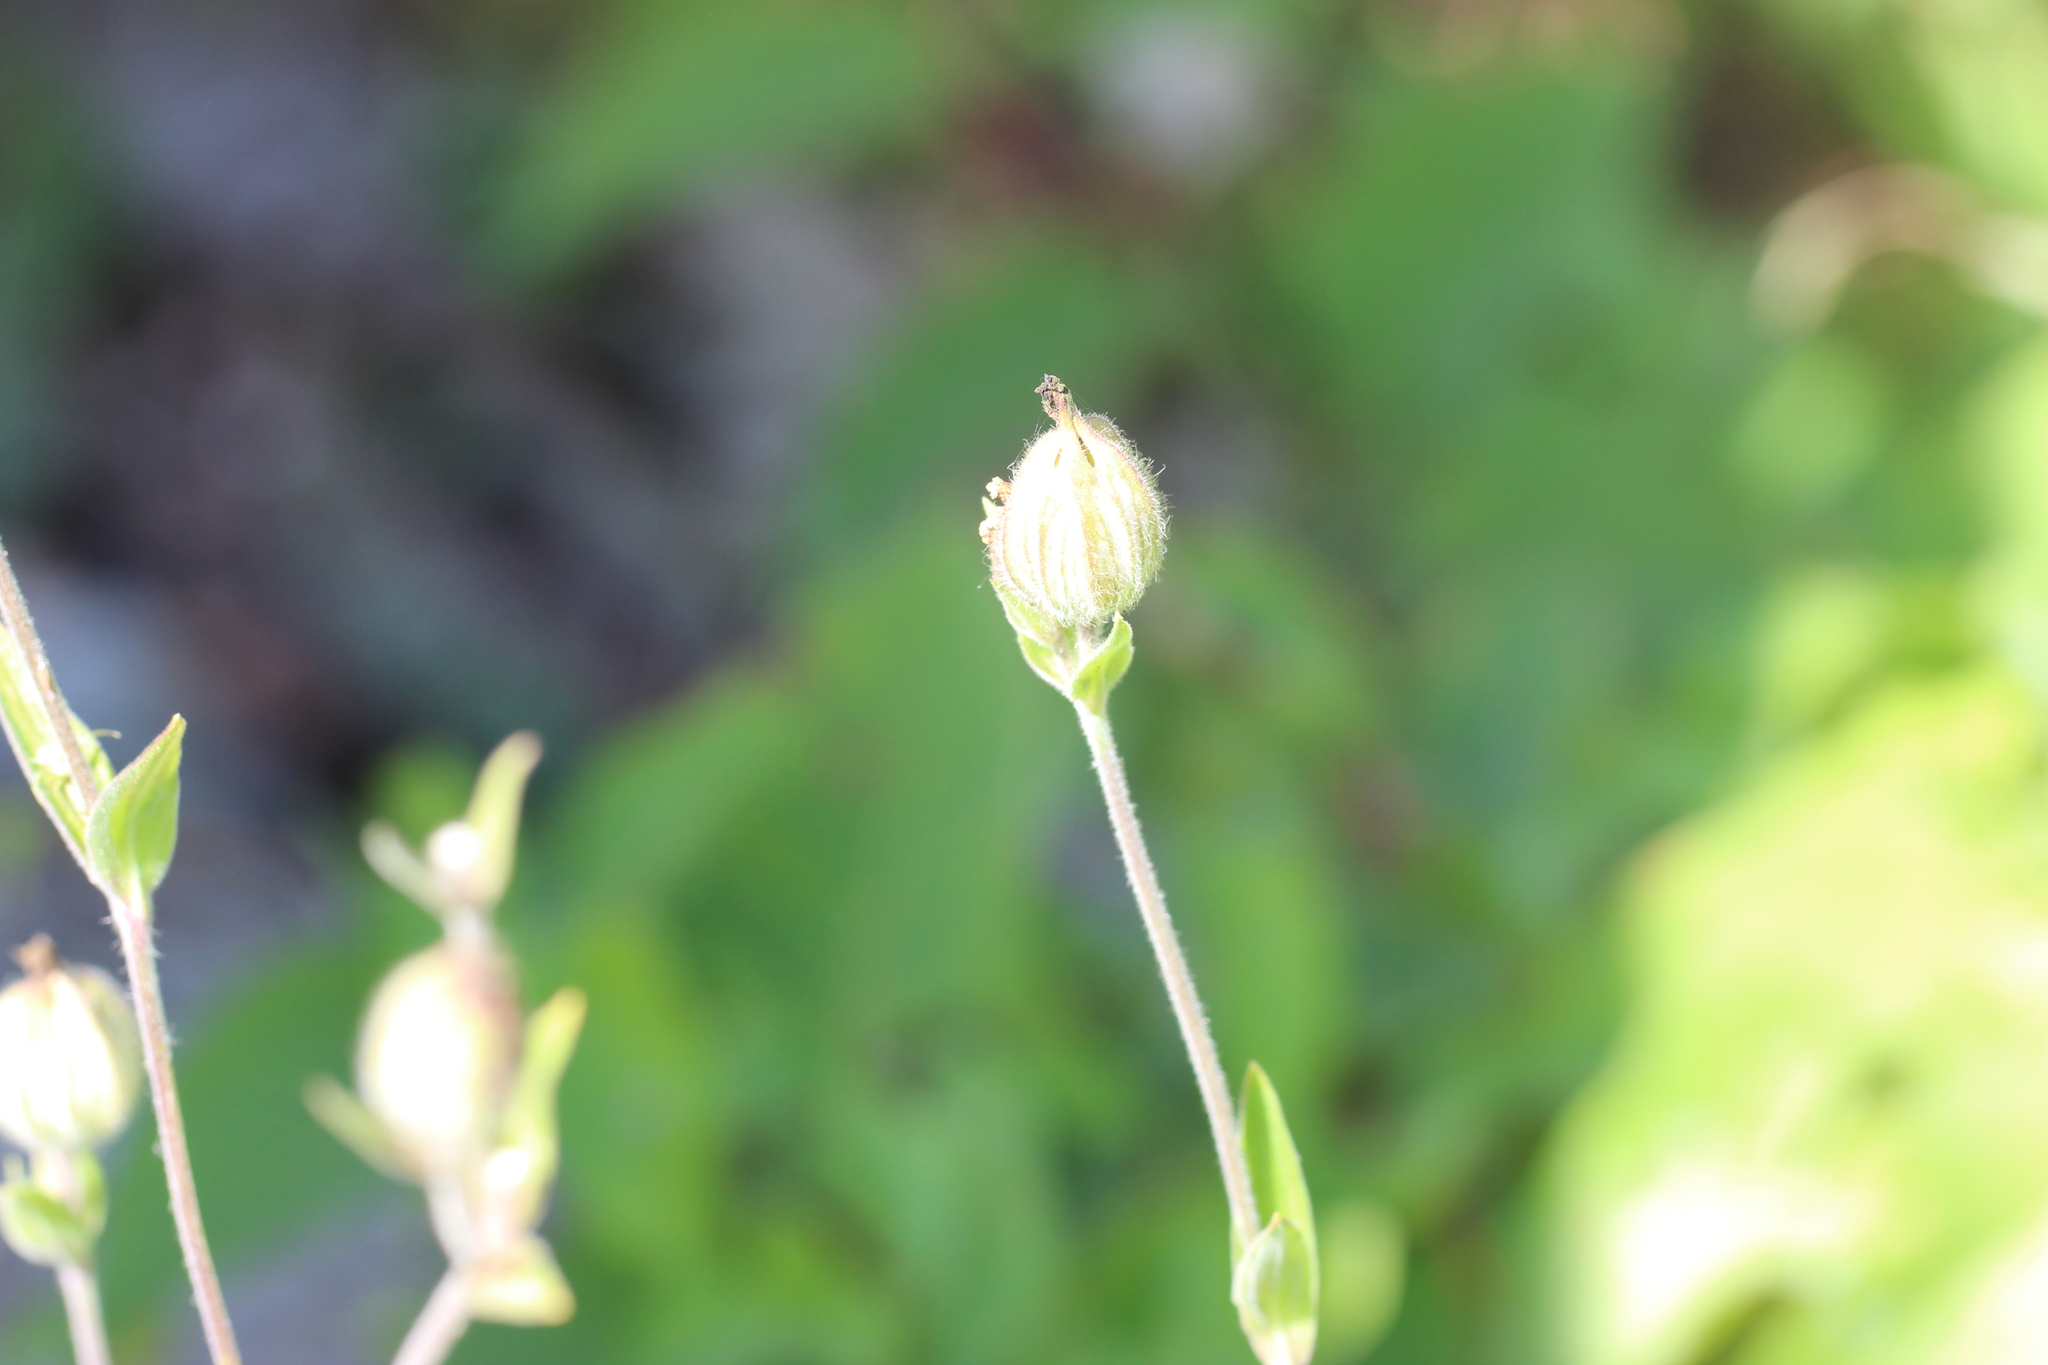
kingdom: Plantae
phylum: Tracheophyta
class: Magnoliopsida
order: Caryophyllales
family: Caryophyllaceae
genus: Silene
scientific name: Silene latifolia
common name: White campion
